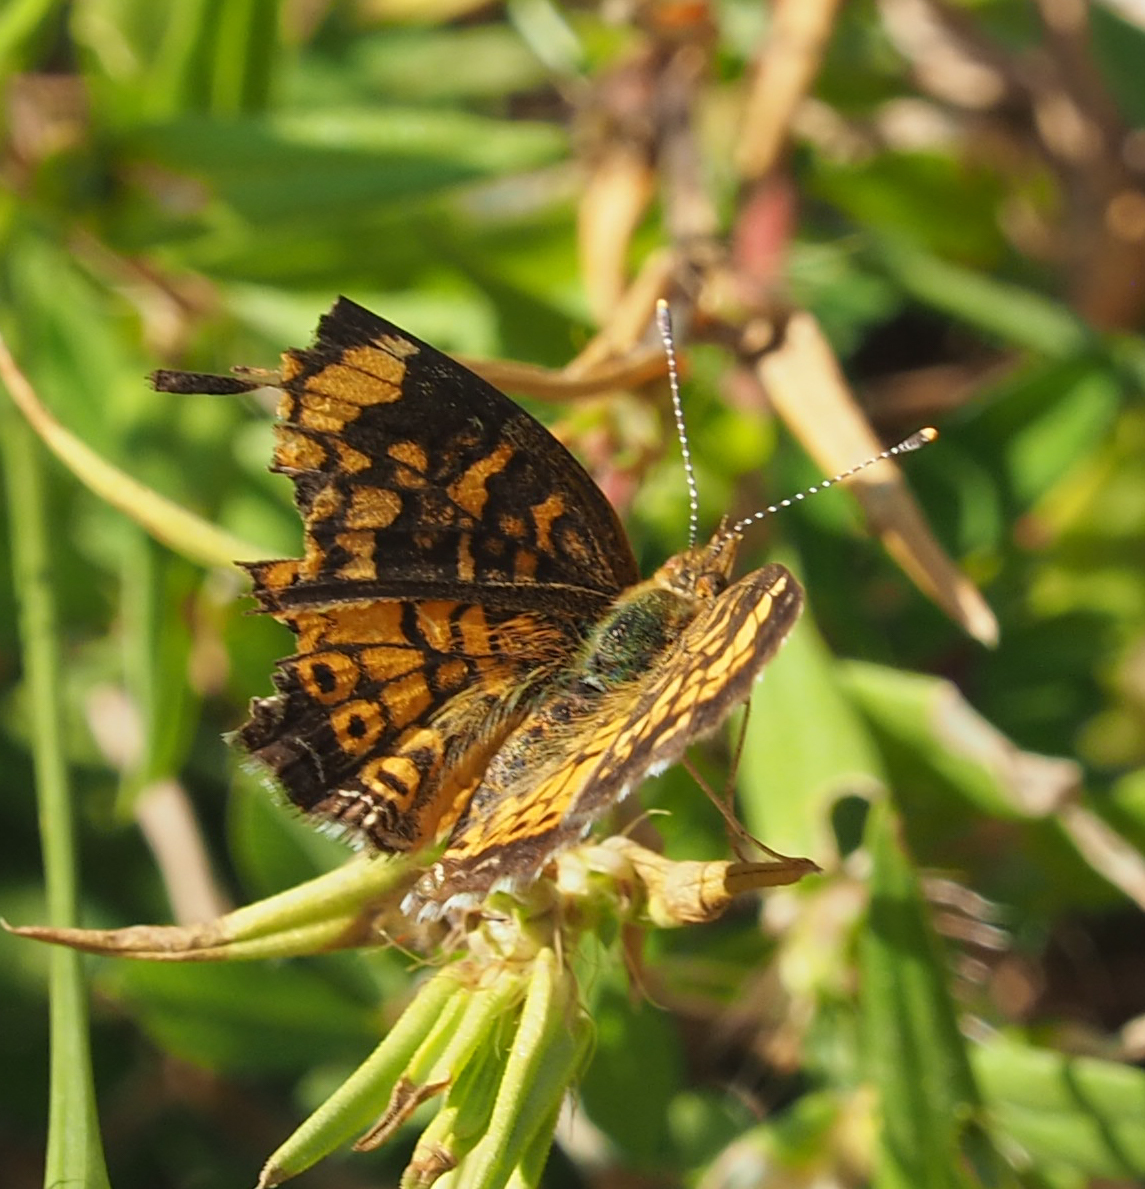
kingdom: Animalia
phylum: Arthropoda
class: Insecta
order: Lepidoptera
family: Nymphalidae
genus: Phyciodes
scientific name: Phyciodes tharos
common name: Pearl crescent
